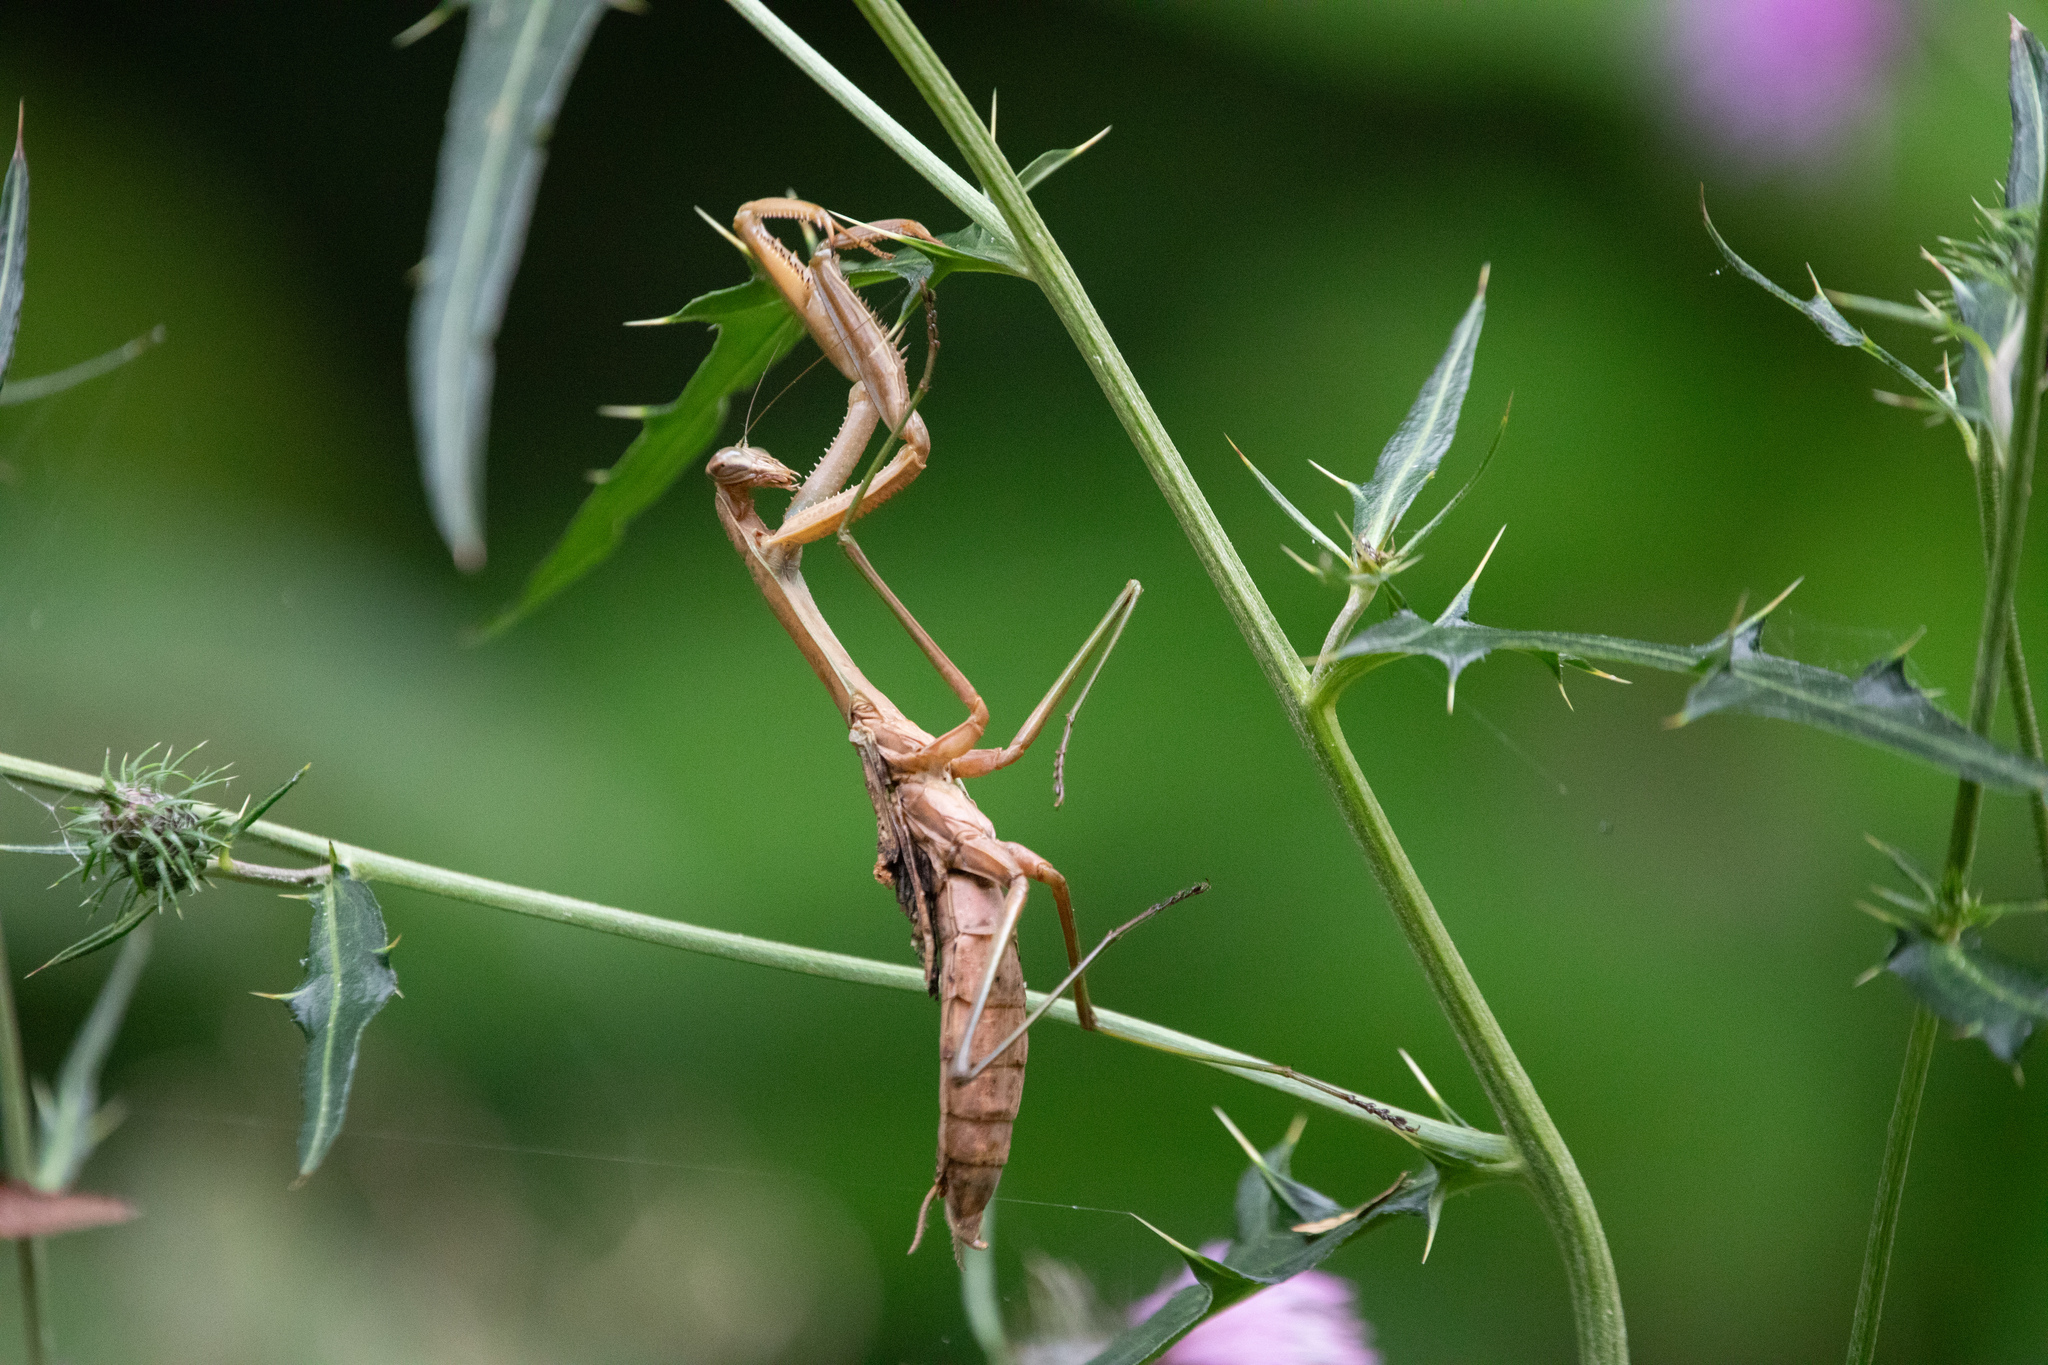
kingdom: Animalia
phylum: Arthropoda
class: Insecta
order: Mantodea
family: Mantidae
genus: Tenodera
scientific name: Tenodera sinensis
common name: Chinese mantis
